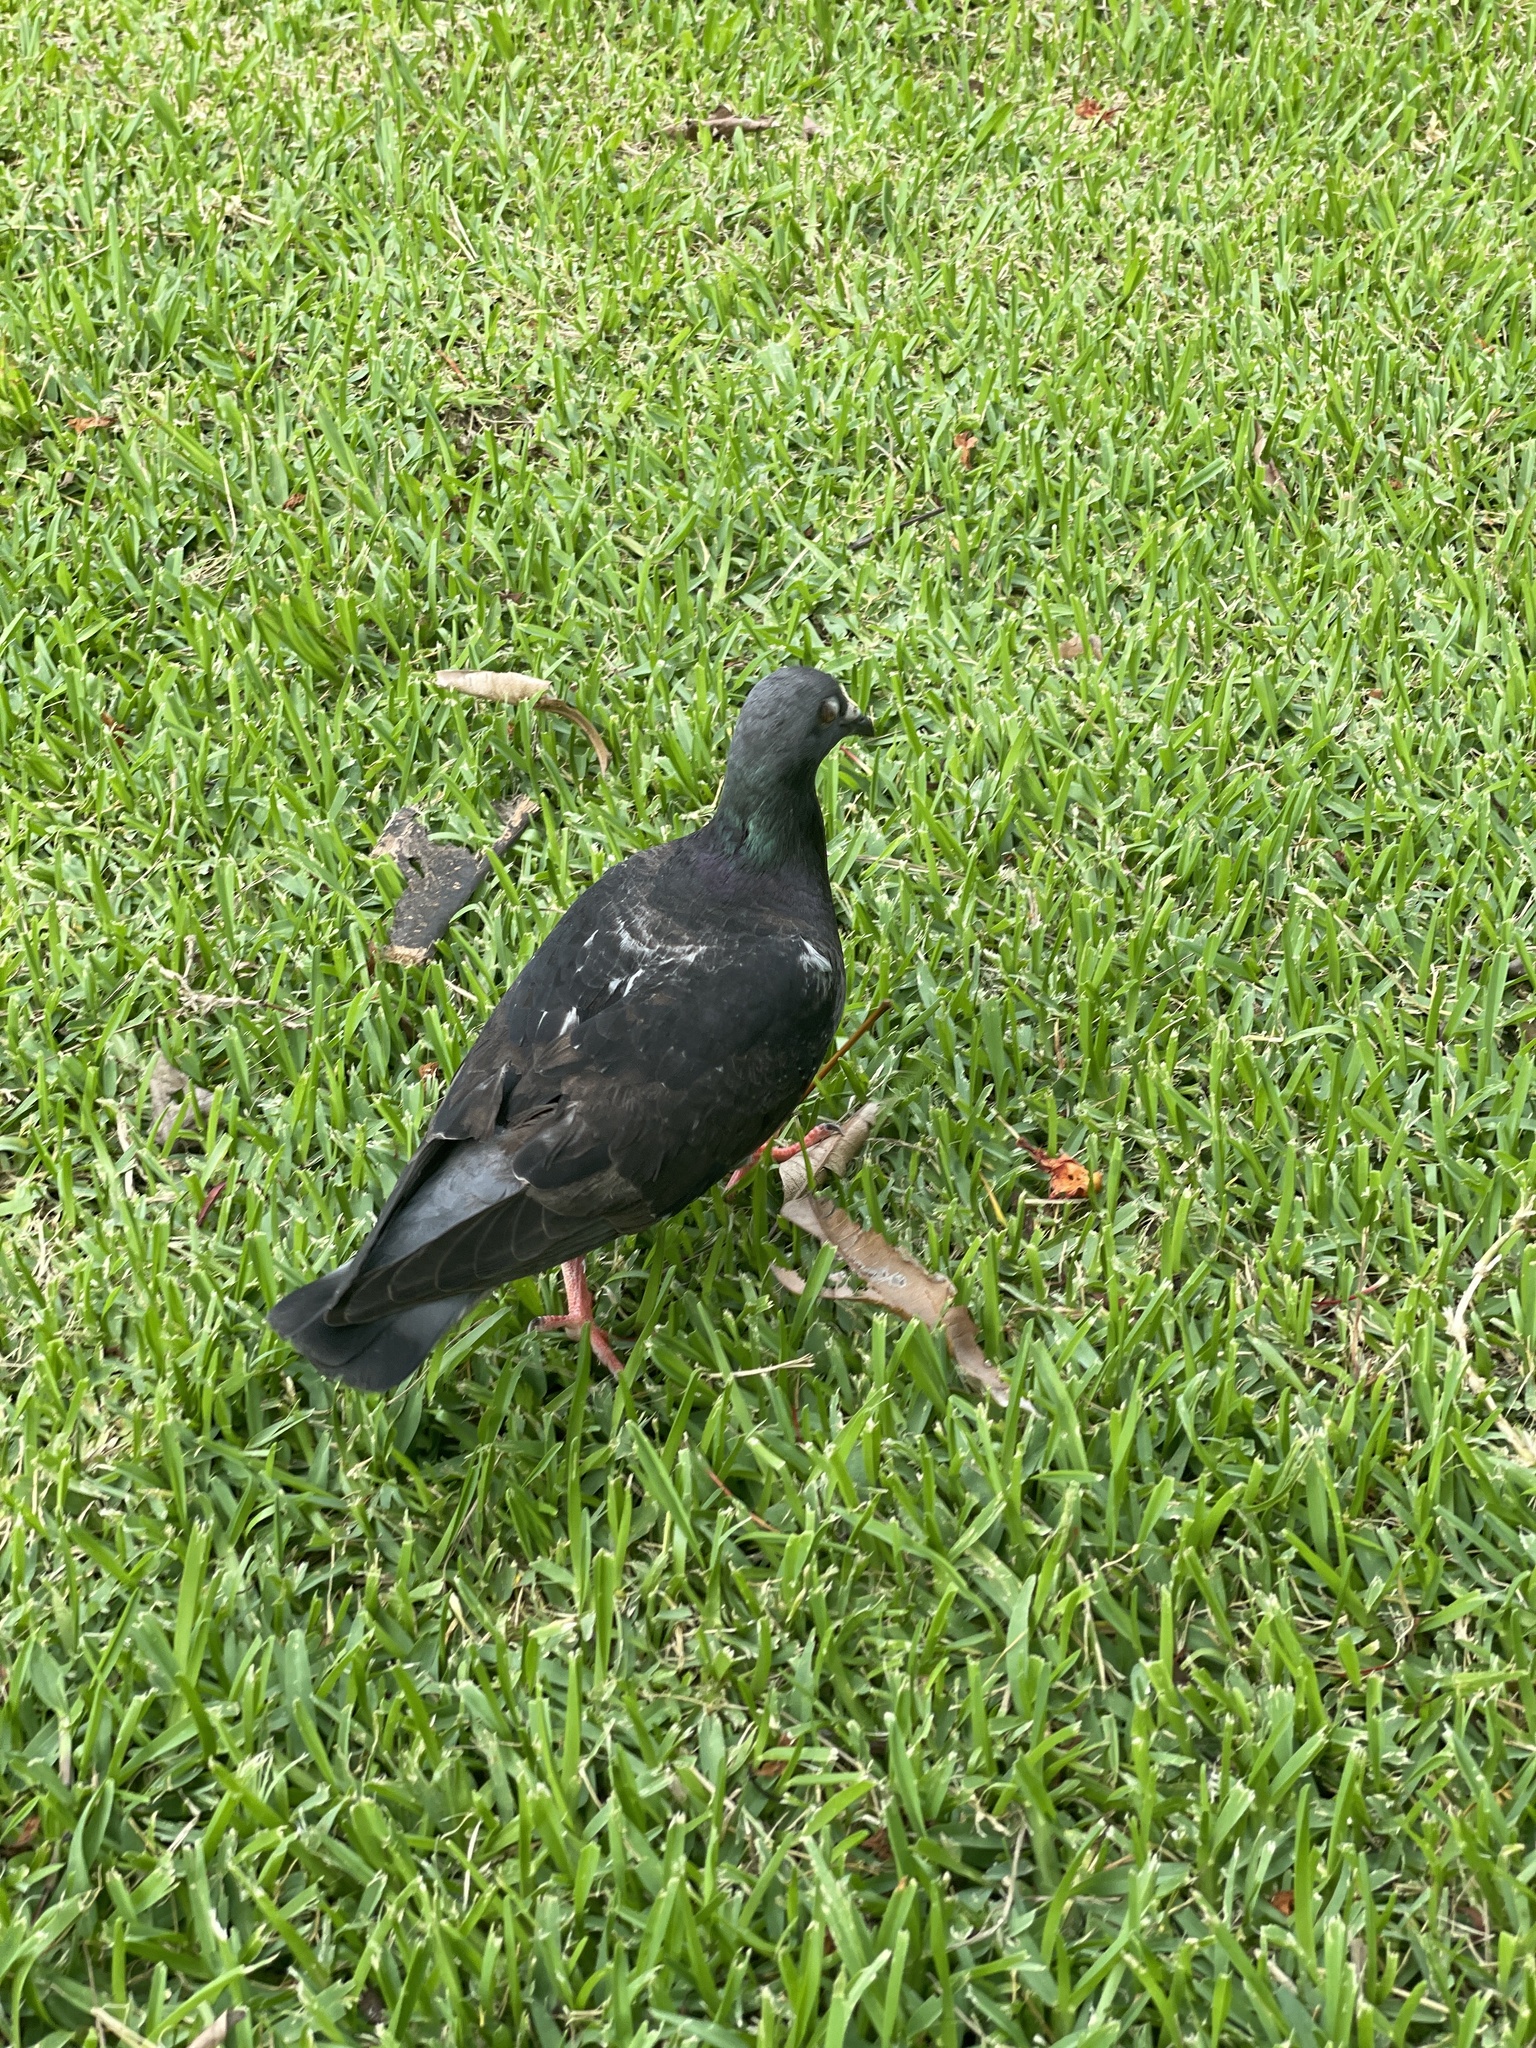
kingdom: Animalia
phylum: Chordata
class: Aves
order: Columbiformes
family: Columbidae
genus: Columba
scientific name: Columba livia
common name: Rock pigeon
